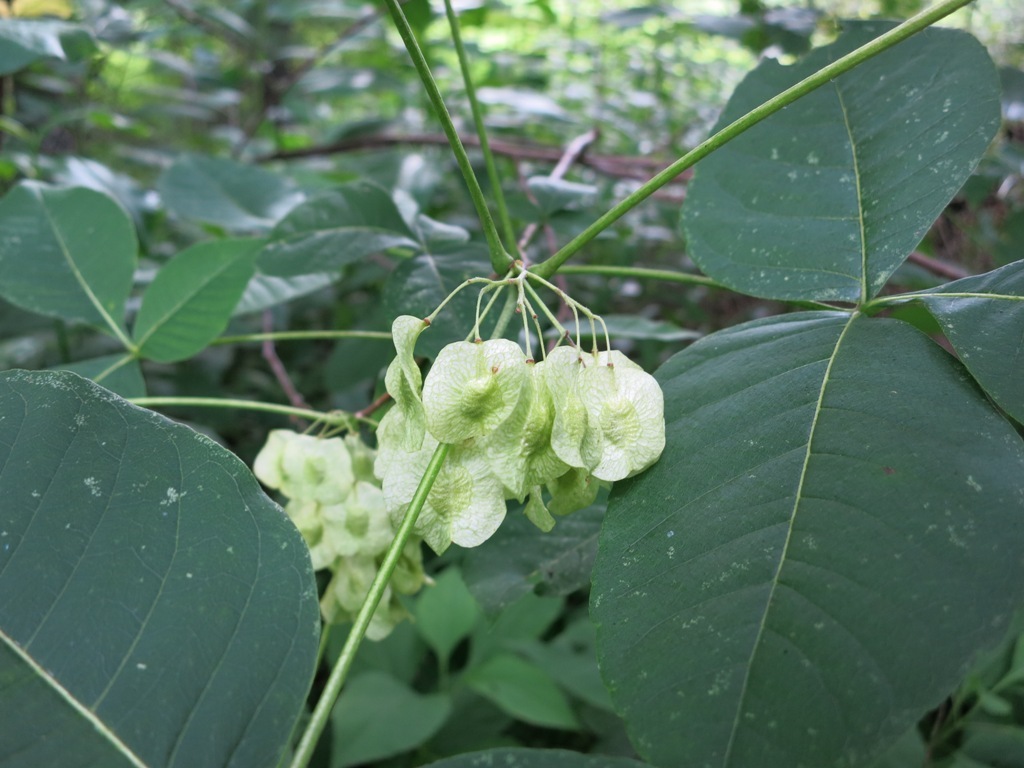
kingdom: Plantae
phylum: Tracheophyta
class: Magnoliopsida
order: Sapindales
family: Rutaceae
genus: Ptelea
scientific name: Ptelea trifoliata
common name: Common hop-tree
